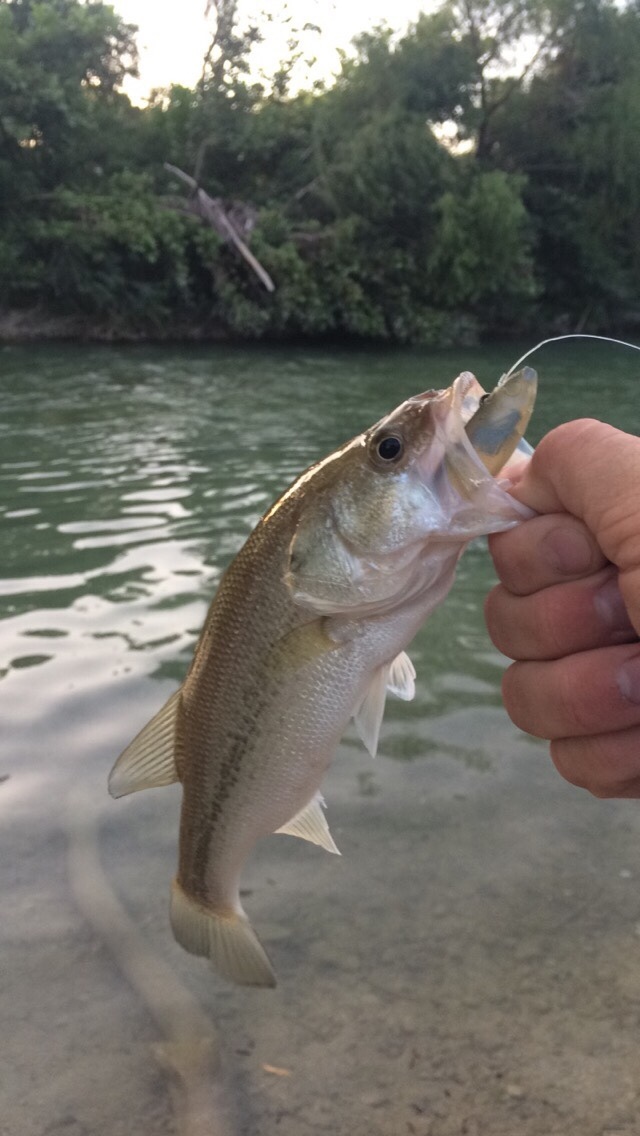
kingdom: Animalia
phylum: Chordata
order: Perciformes
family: Centrarchidae
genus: Micropterus
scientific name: Micropterus
